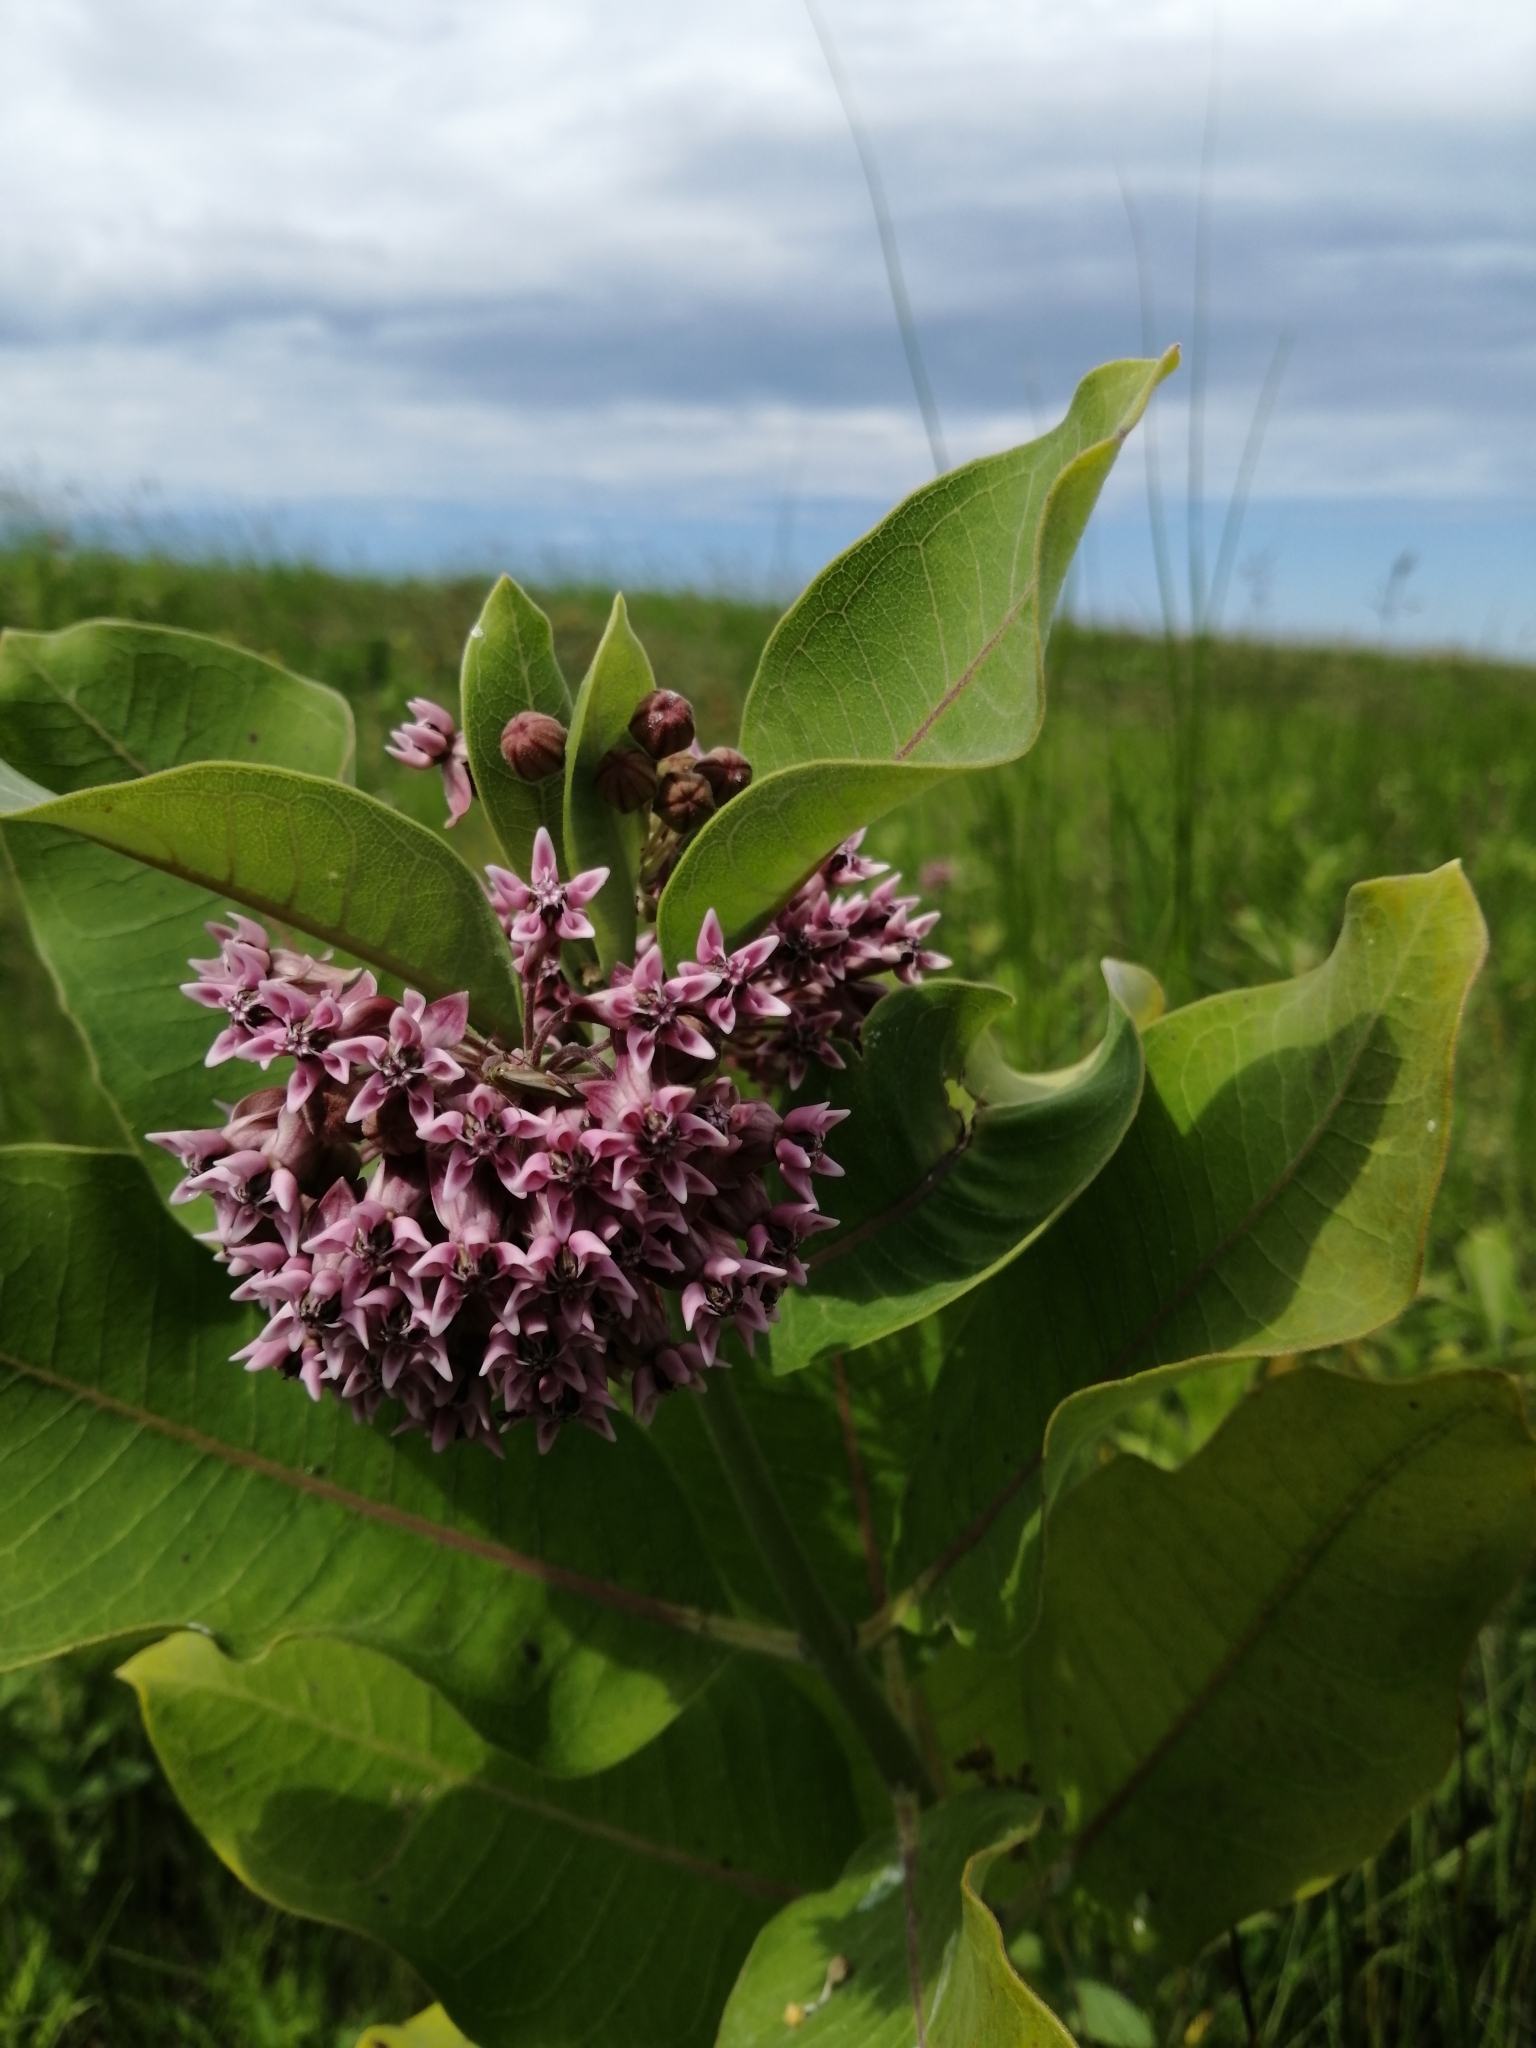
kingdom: Plantae
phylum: Tracheophyta
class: Magnoliopsida
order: Gentianales
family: Apocynaceae
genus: Asclepias
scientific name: Asclepias syriaca
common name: Common milkweed
